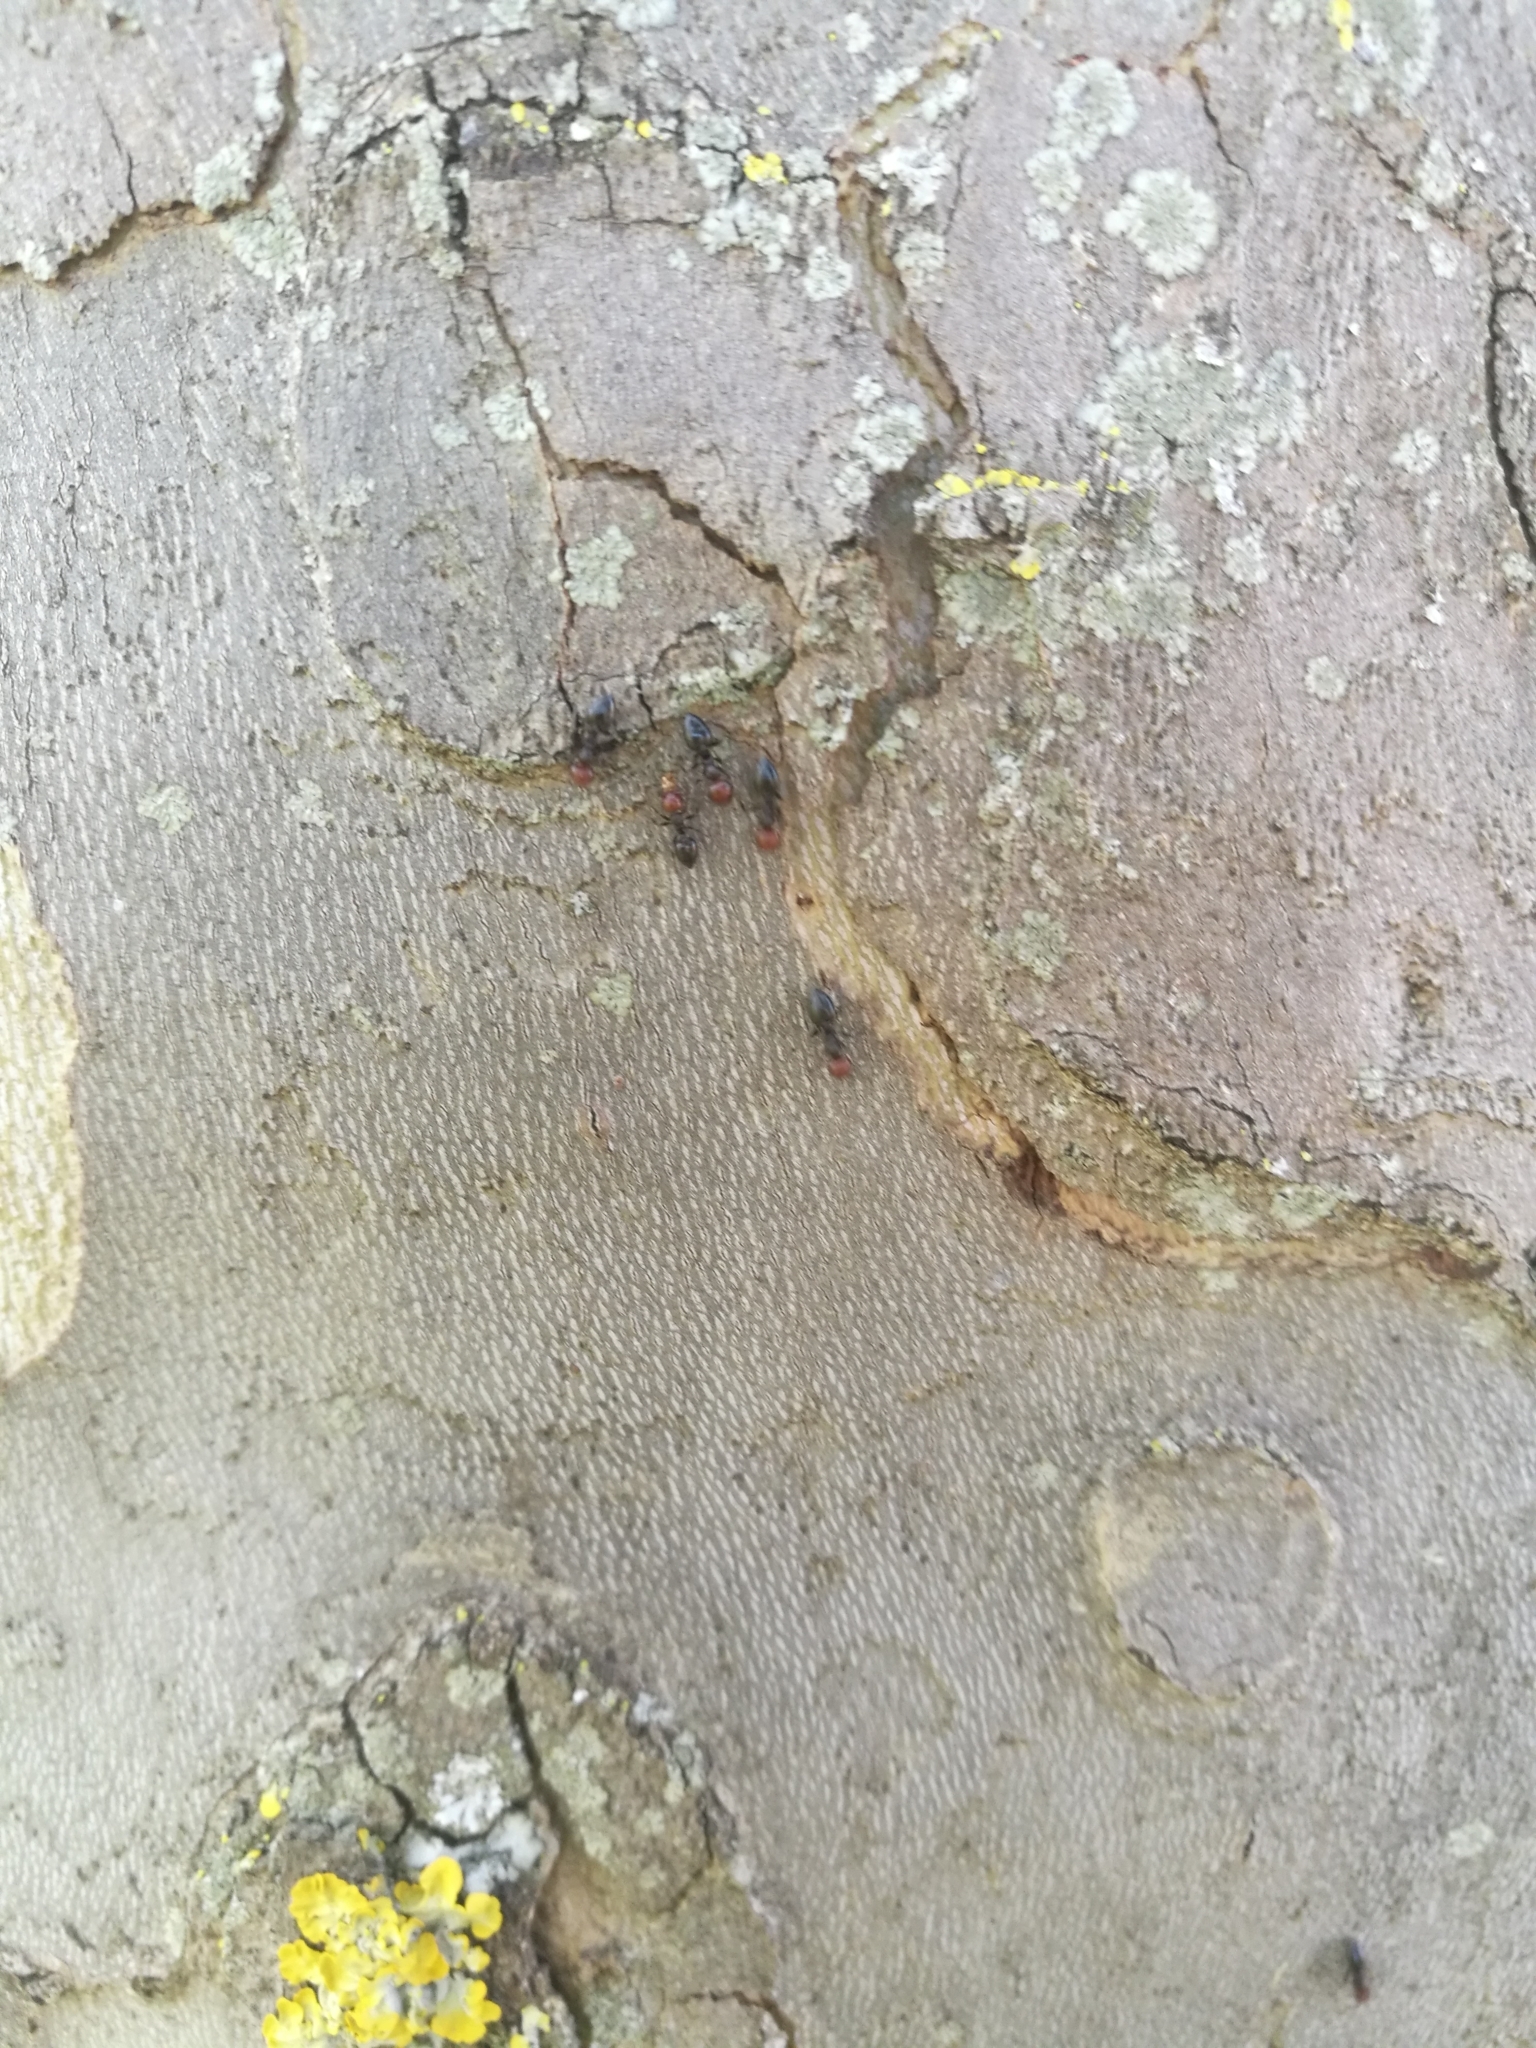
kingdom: Animalia
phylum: Arthropoda
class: Insecta
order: Hymenoptera
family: Formicidae
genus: Crematogaster
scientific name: Crematogaster scutellaris
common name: Fourmi du liège
